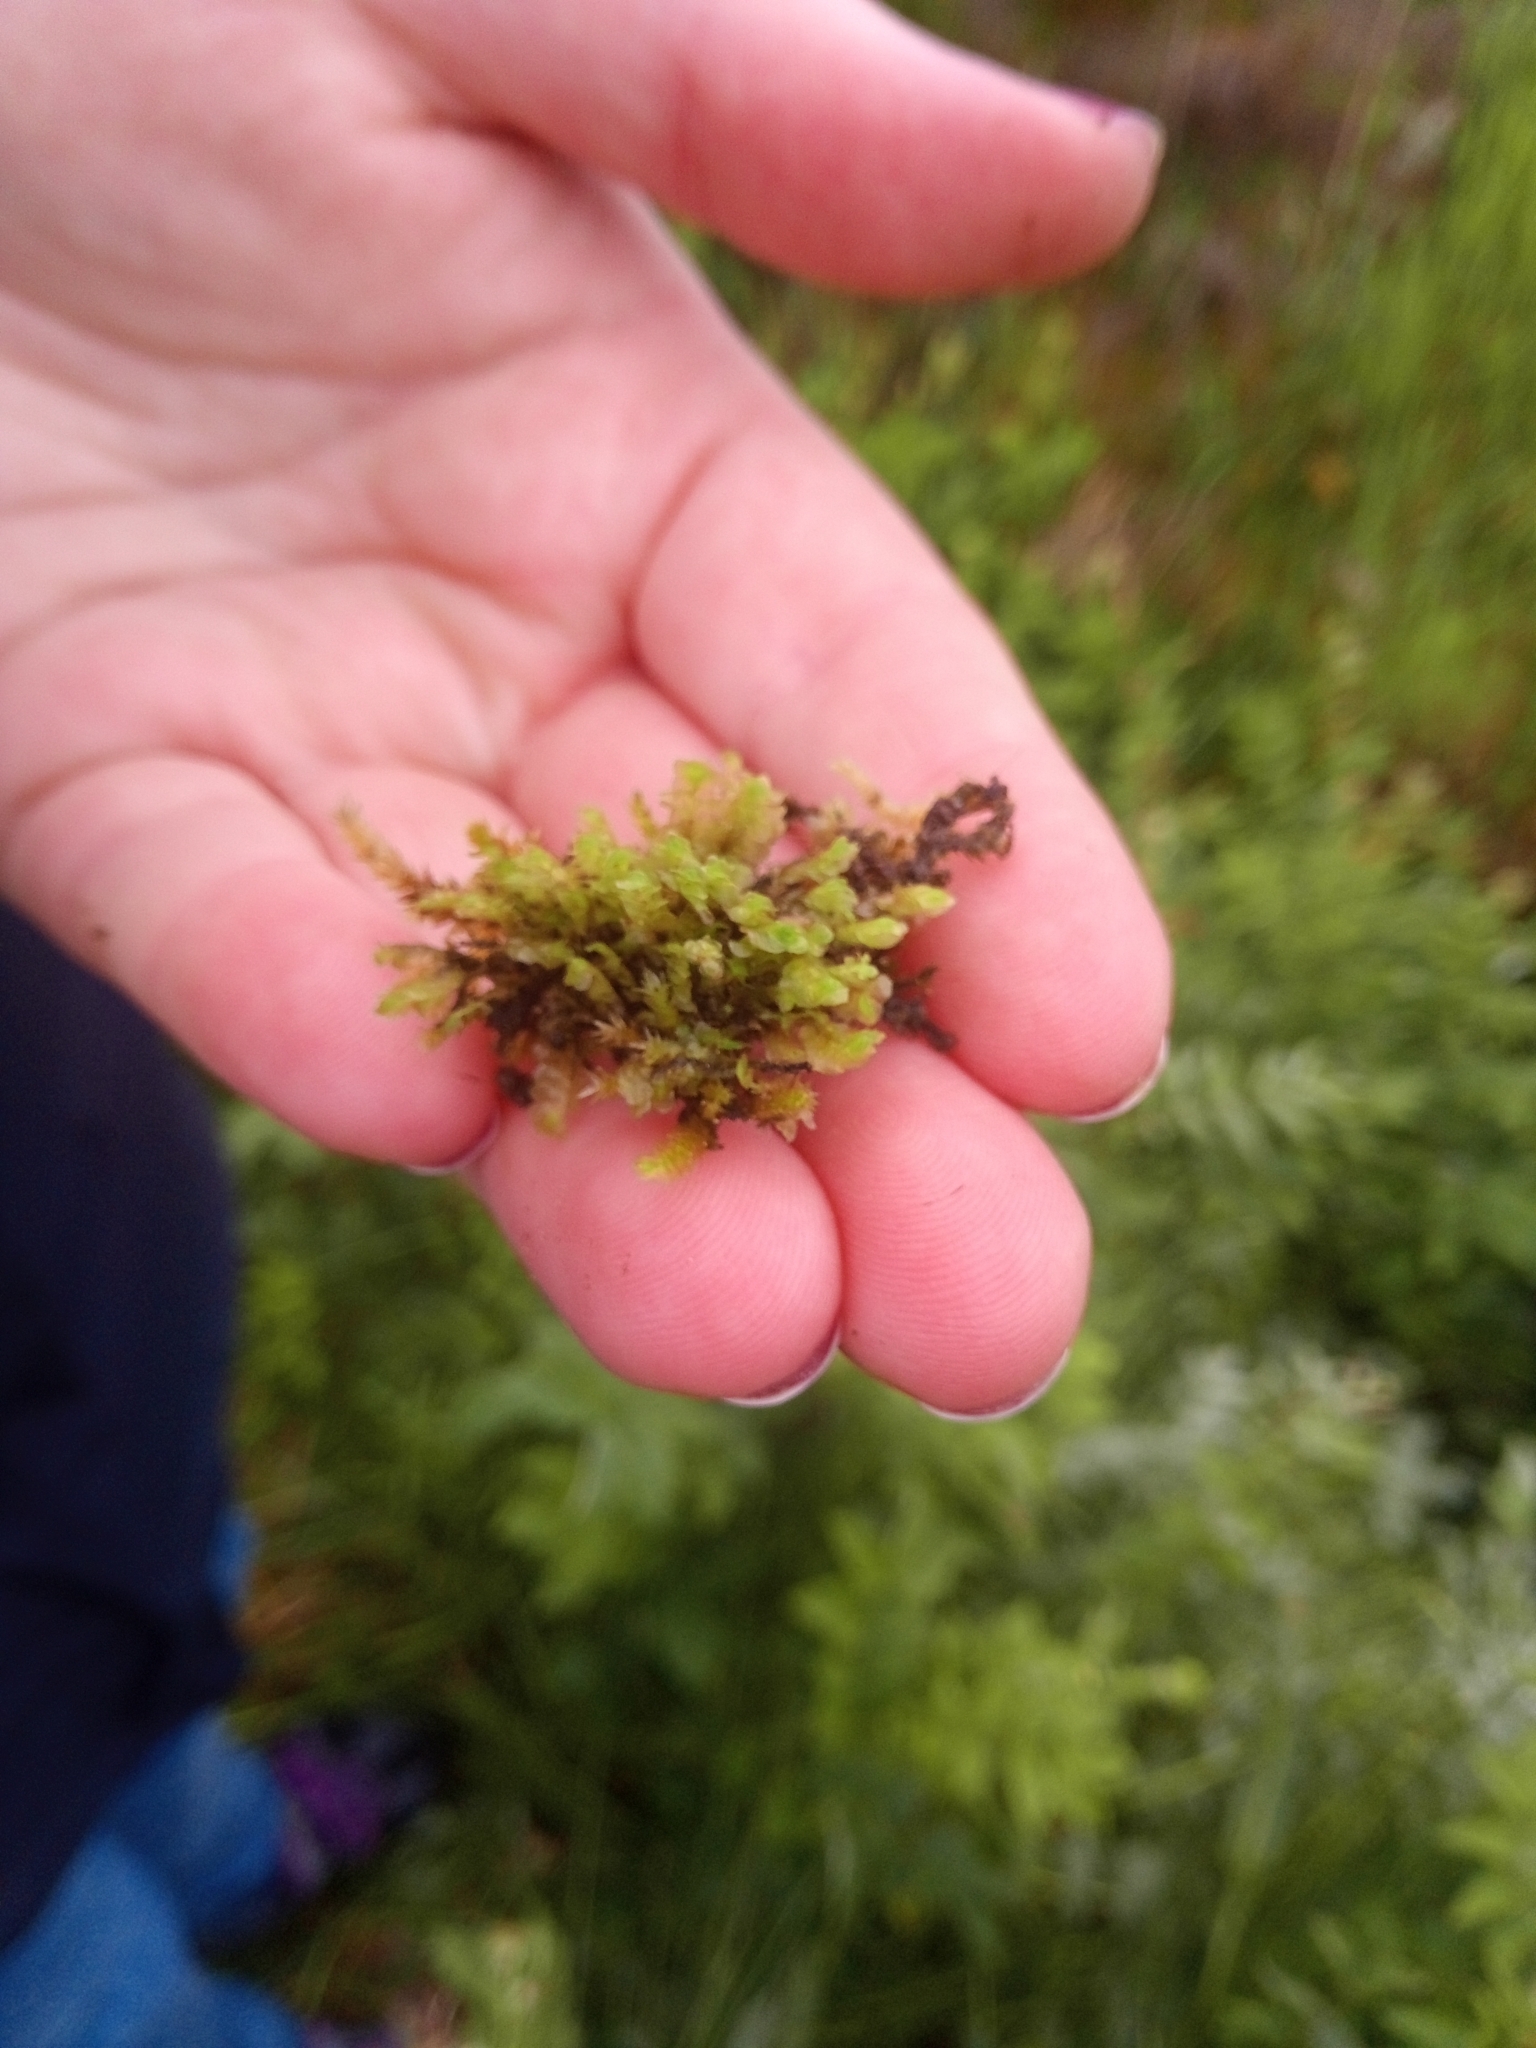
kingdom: Plantae
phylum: Marchantiophyta
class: Jungermanniopsida
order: Jungermanniales
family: Scapaniaceae
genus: Scapania
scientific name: Scapania undulata
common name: Water earwort
